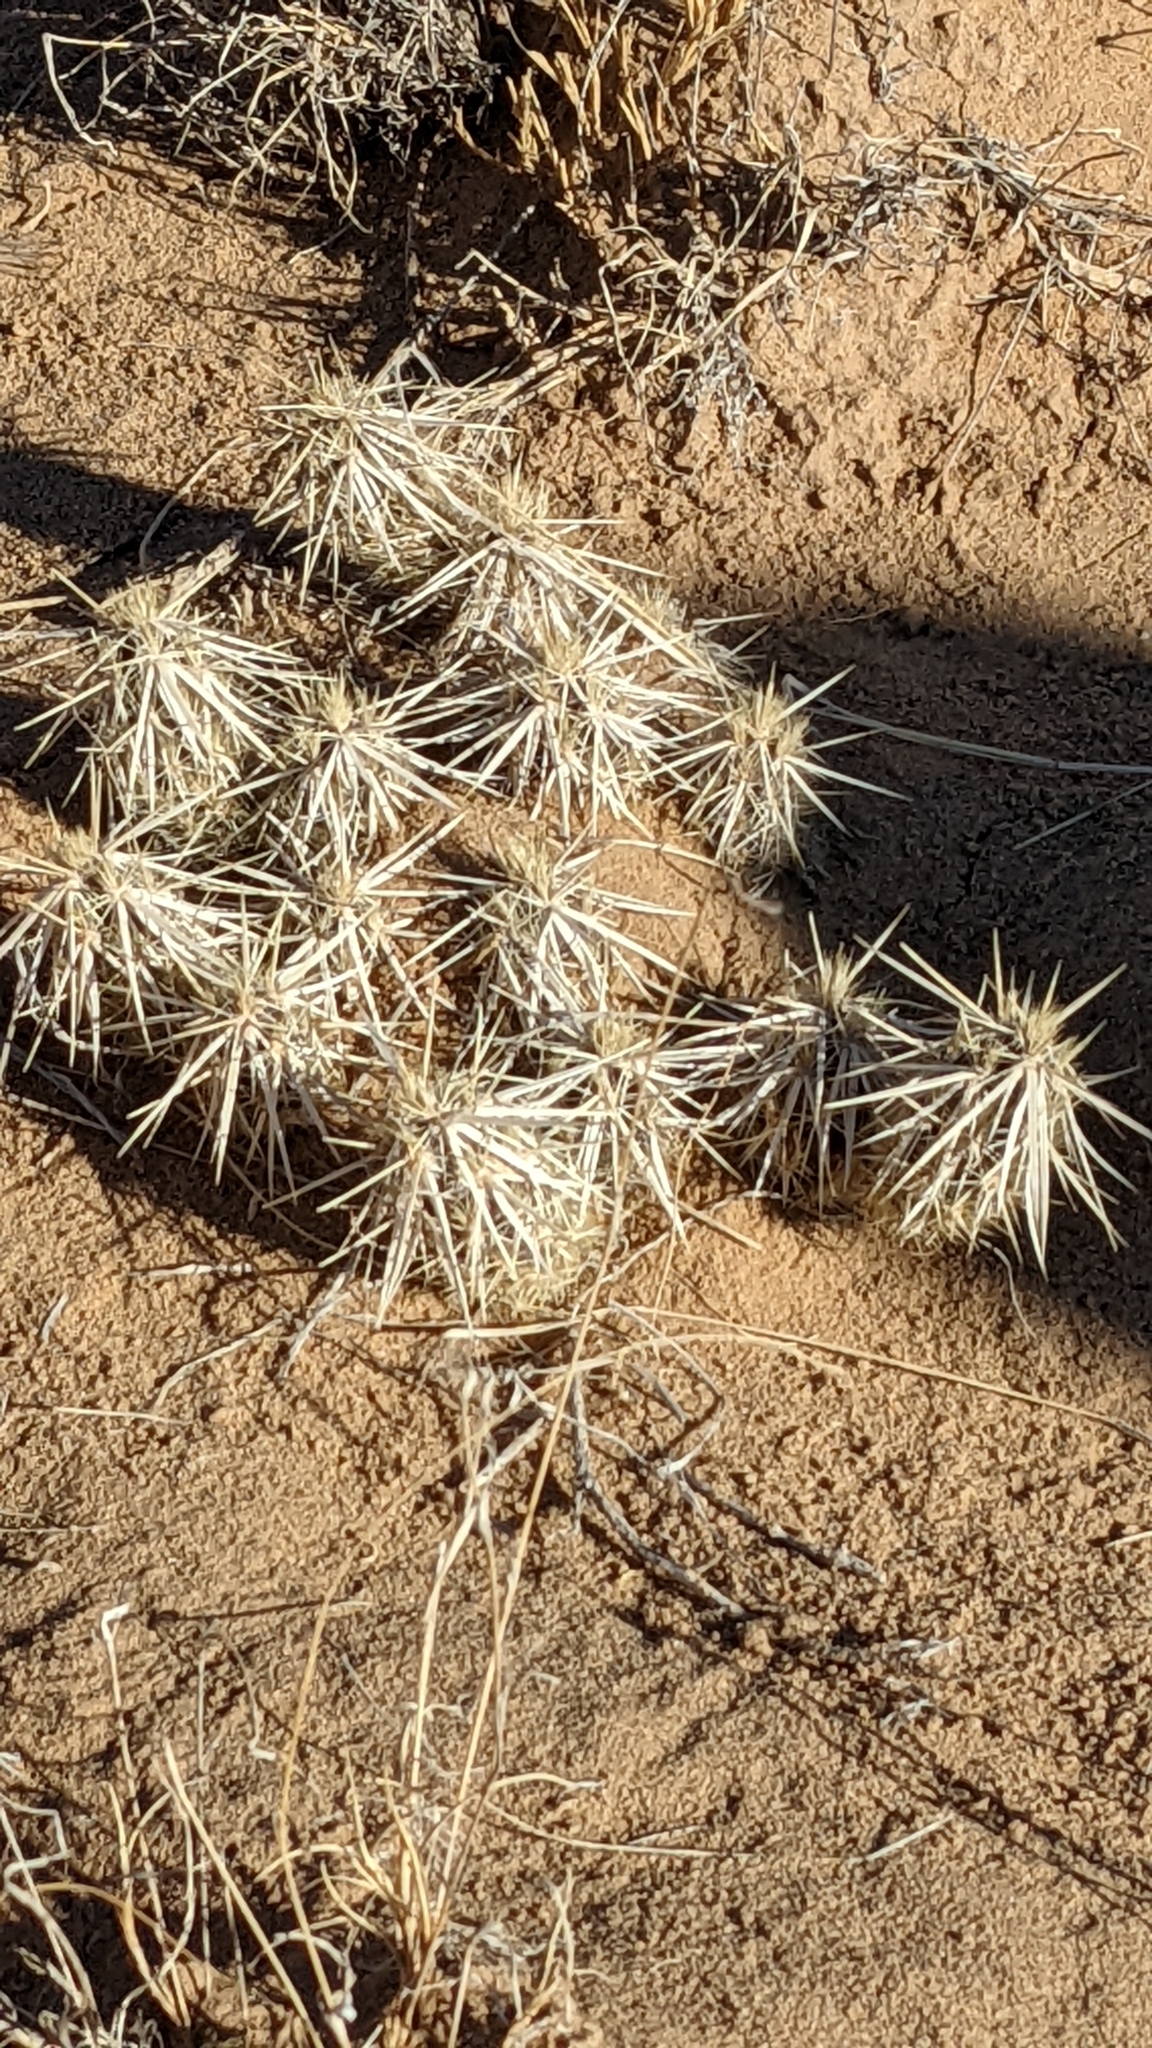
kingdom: Plantae
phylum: Tracheophyta
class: Magnoliopsida
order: Caryophyllales
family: Cactaceae
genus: Grusonia
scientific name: Grusonia clavata
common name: Club cholla
